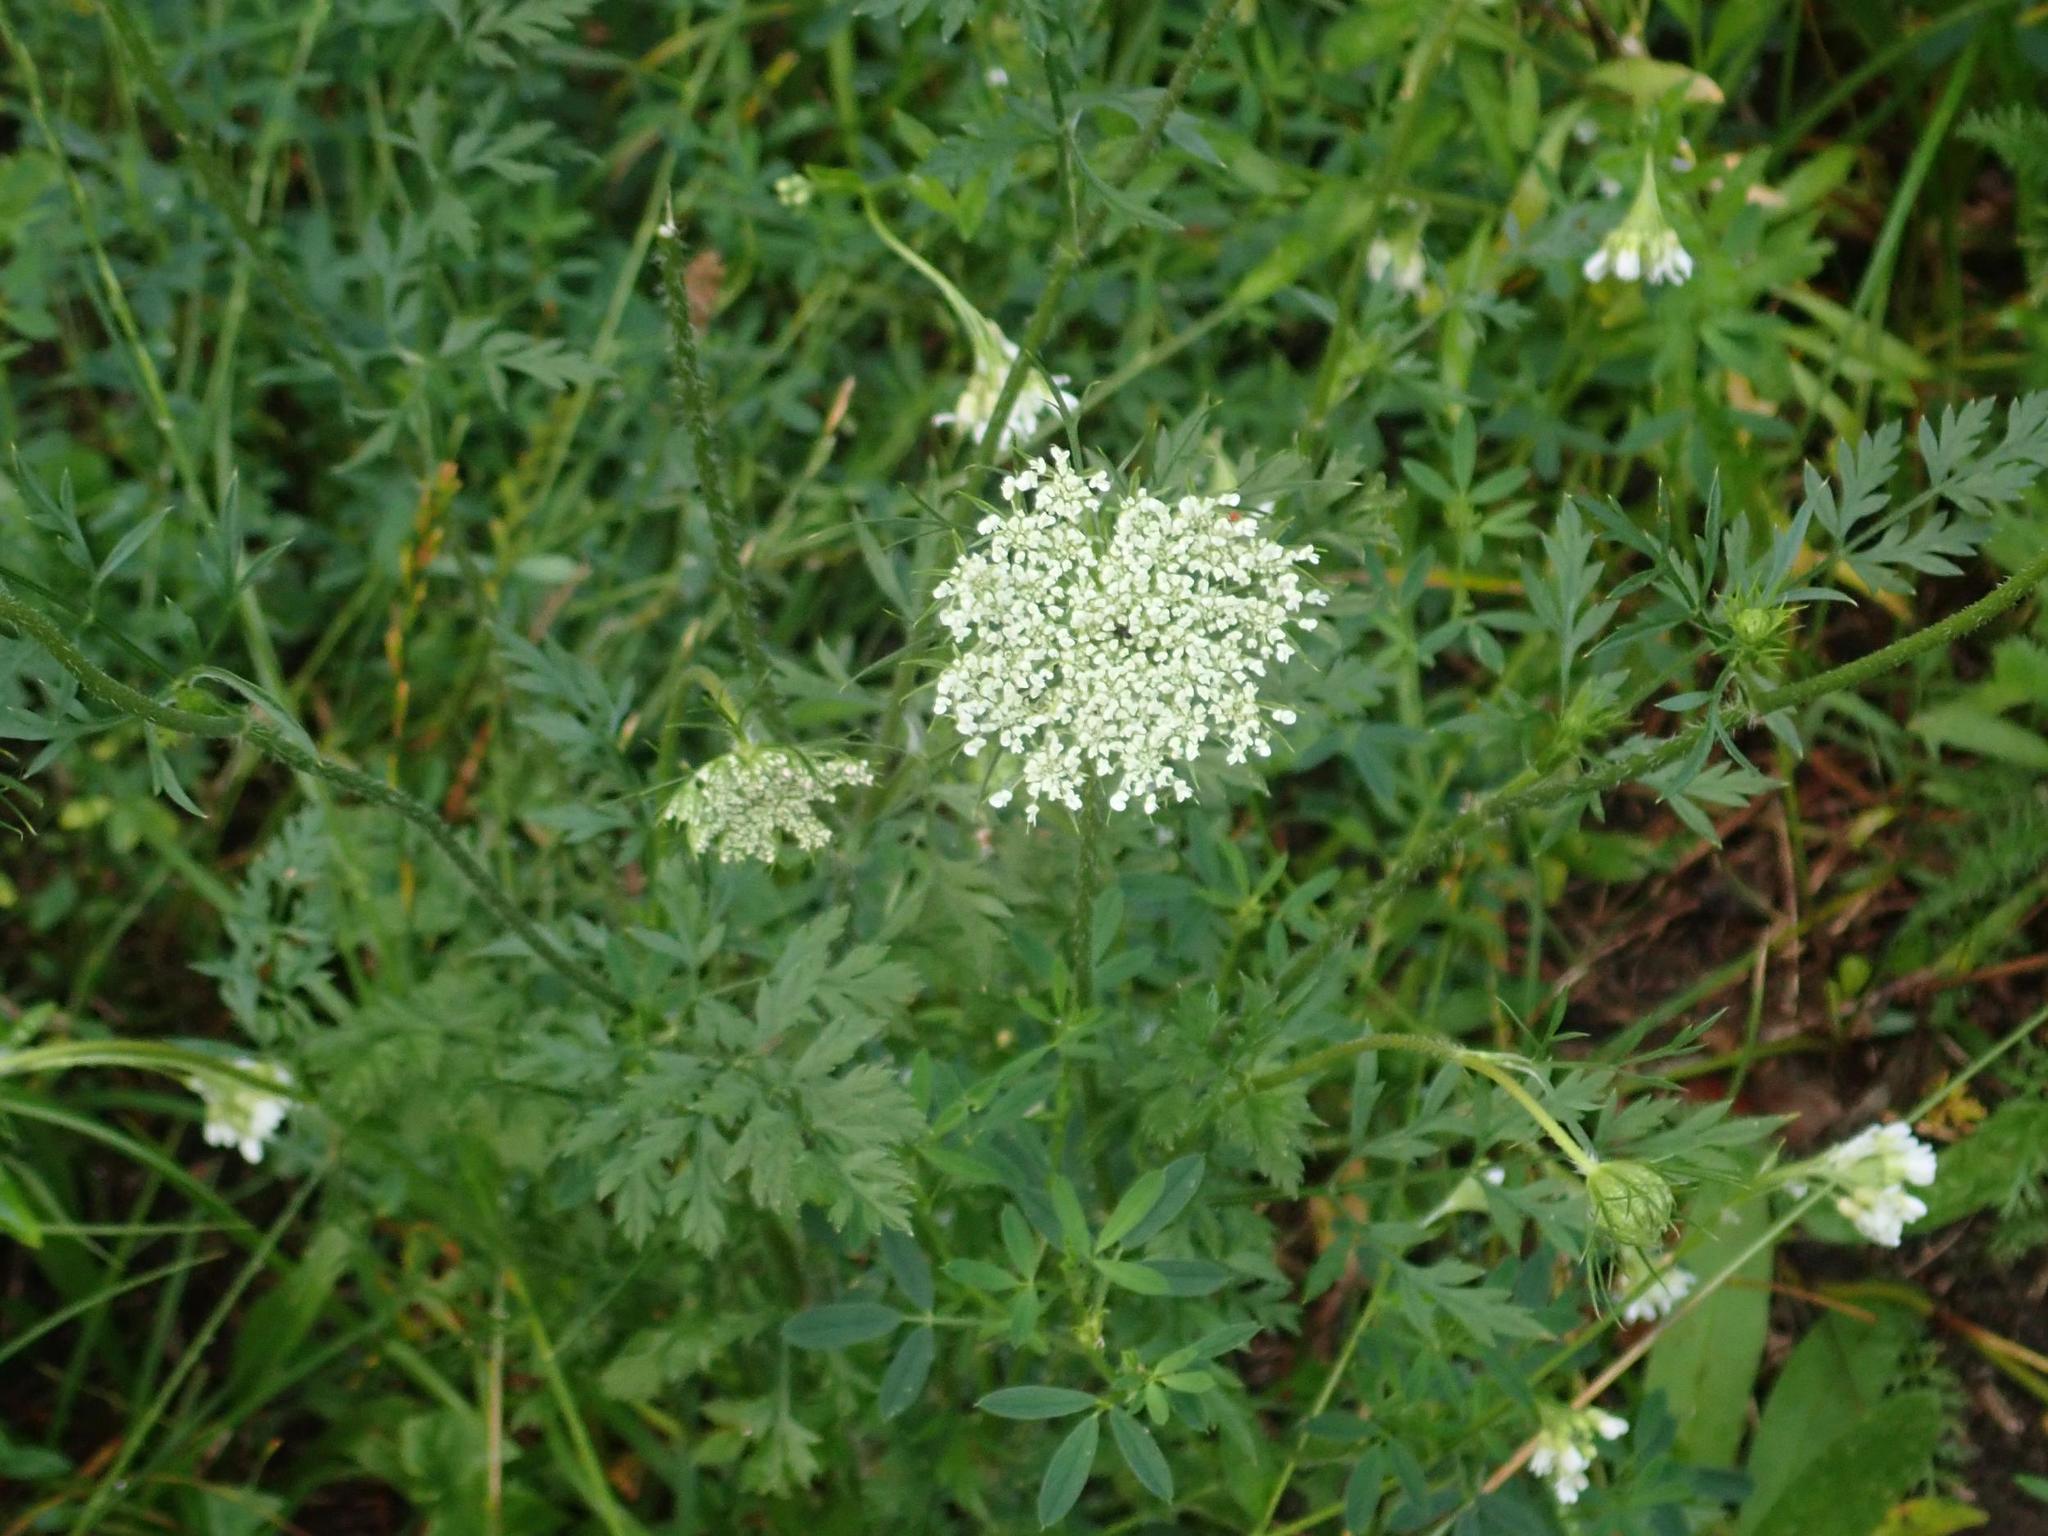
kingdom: Plantae
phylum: Tracheophyta
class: Magnoliopsida
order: Apiales
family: Apiaceae
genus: Daucus
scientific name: Daucus carota
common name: Wild carrot
